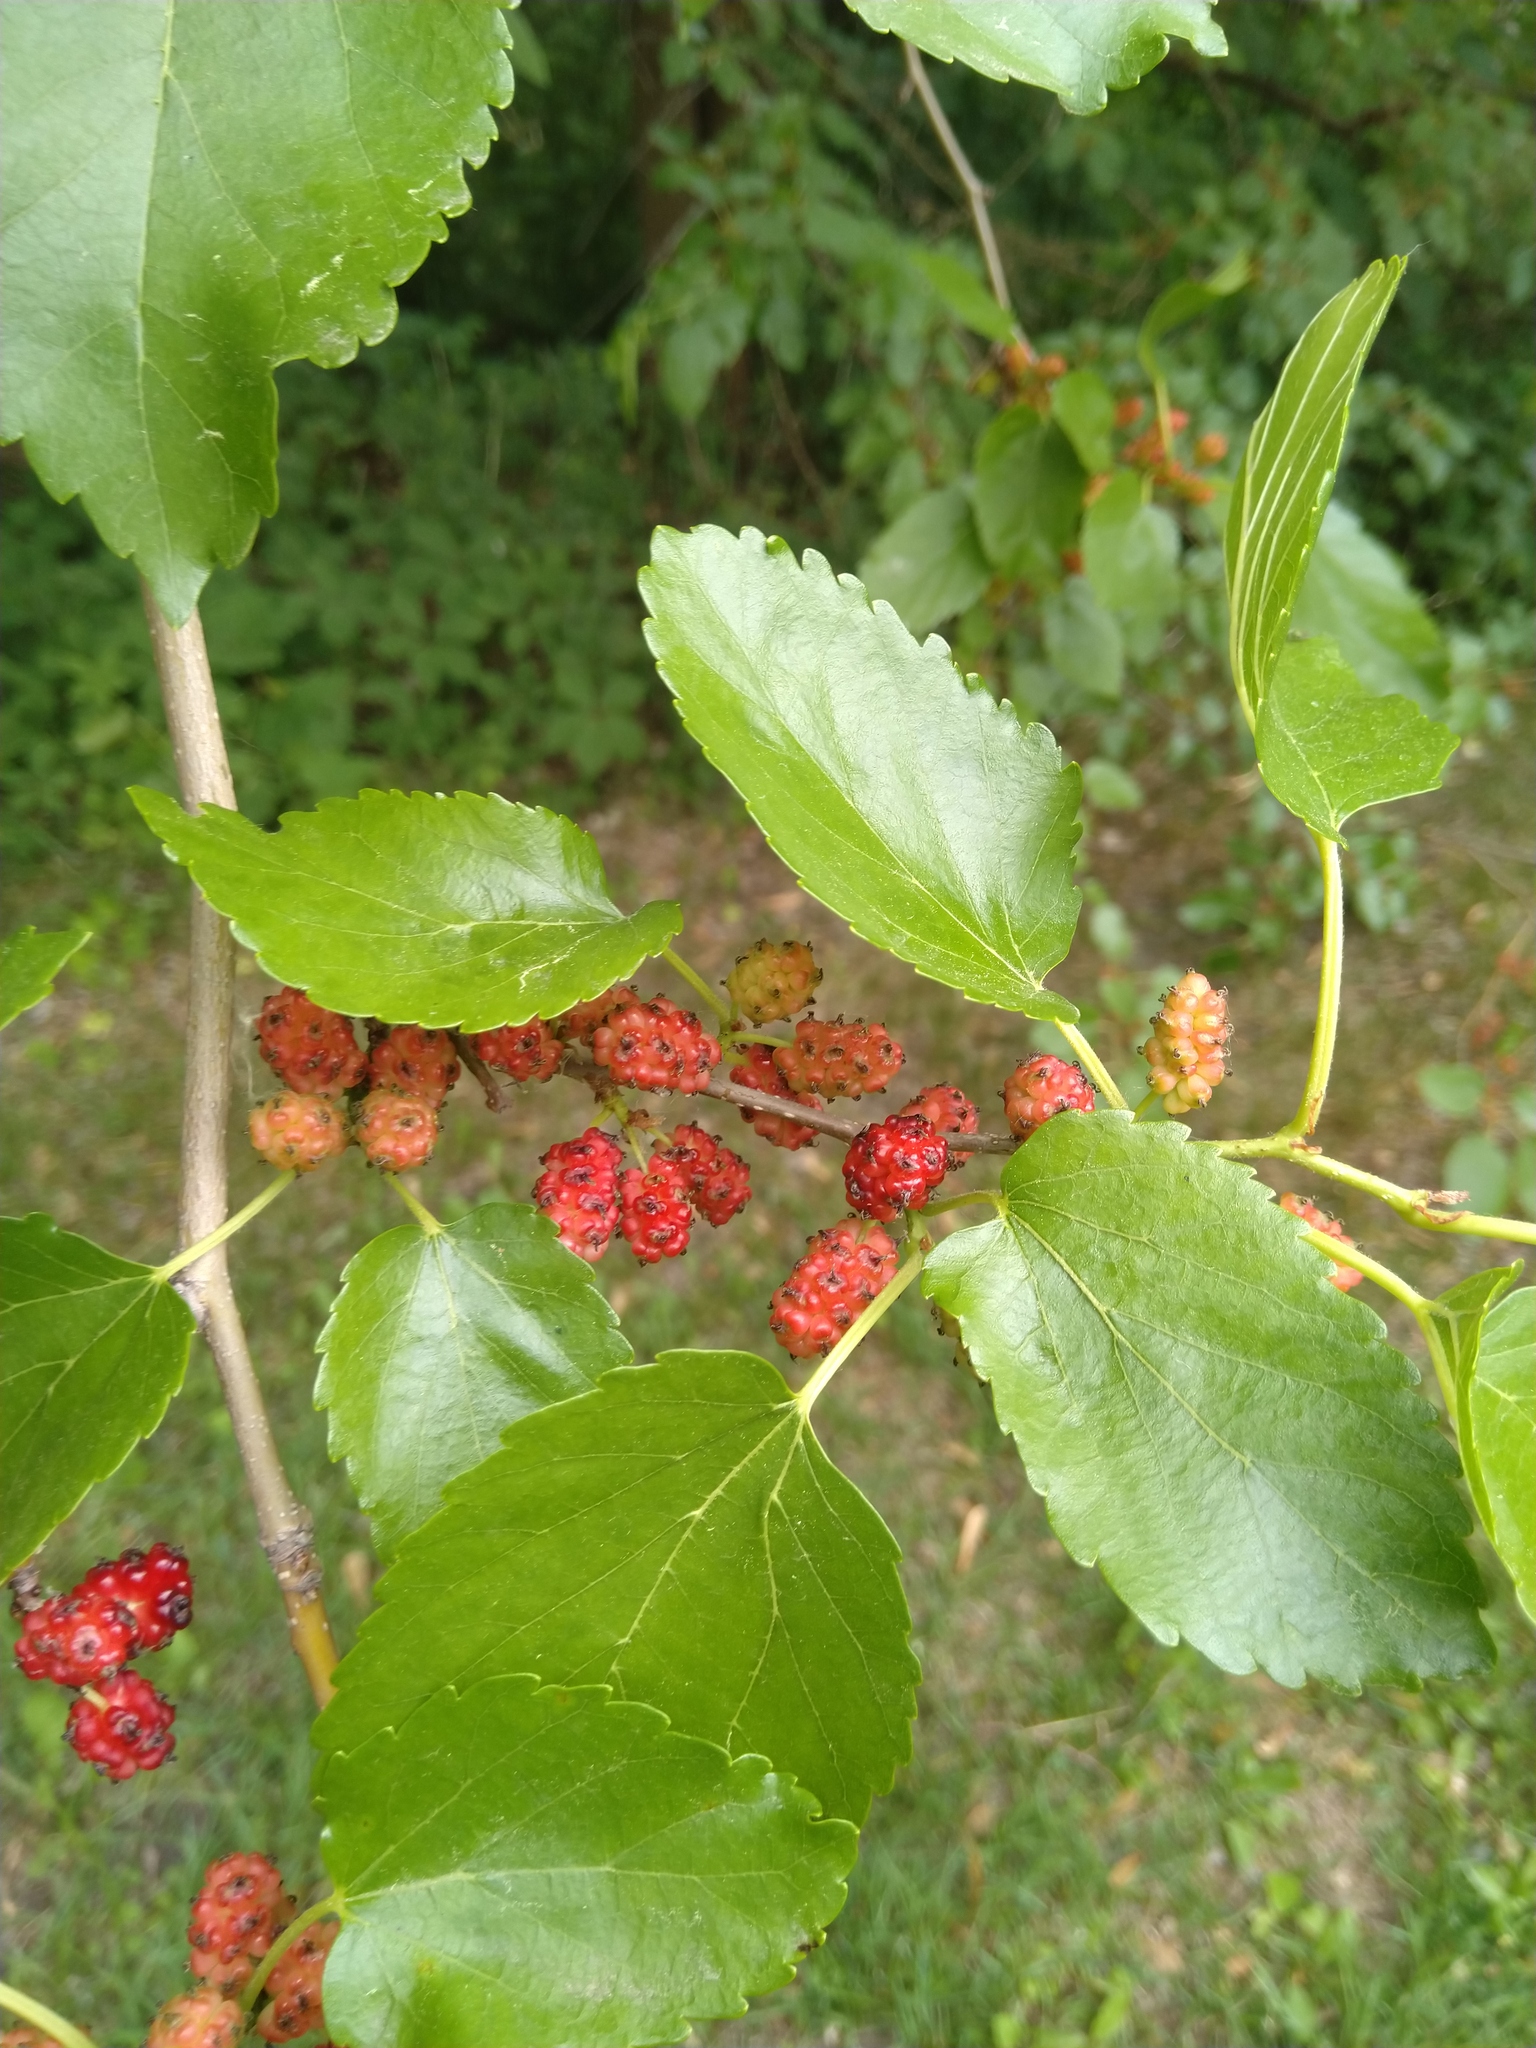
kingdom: Plantae
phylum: Tracheophyta
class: Magnoliopsida
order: Rosales
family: Moraceae
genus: Morus
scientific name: Morus alba
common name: White mulberry
